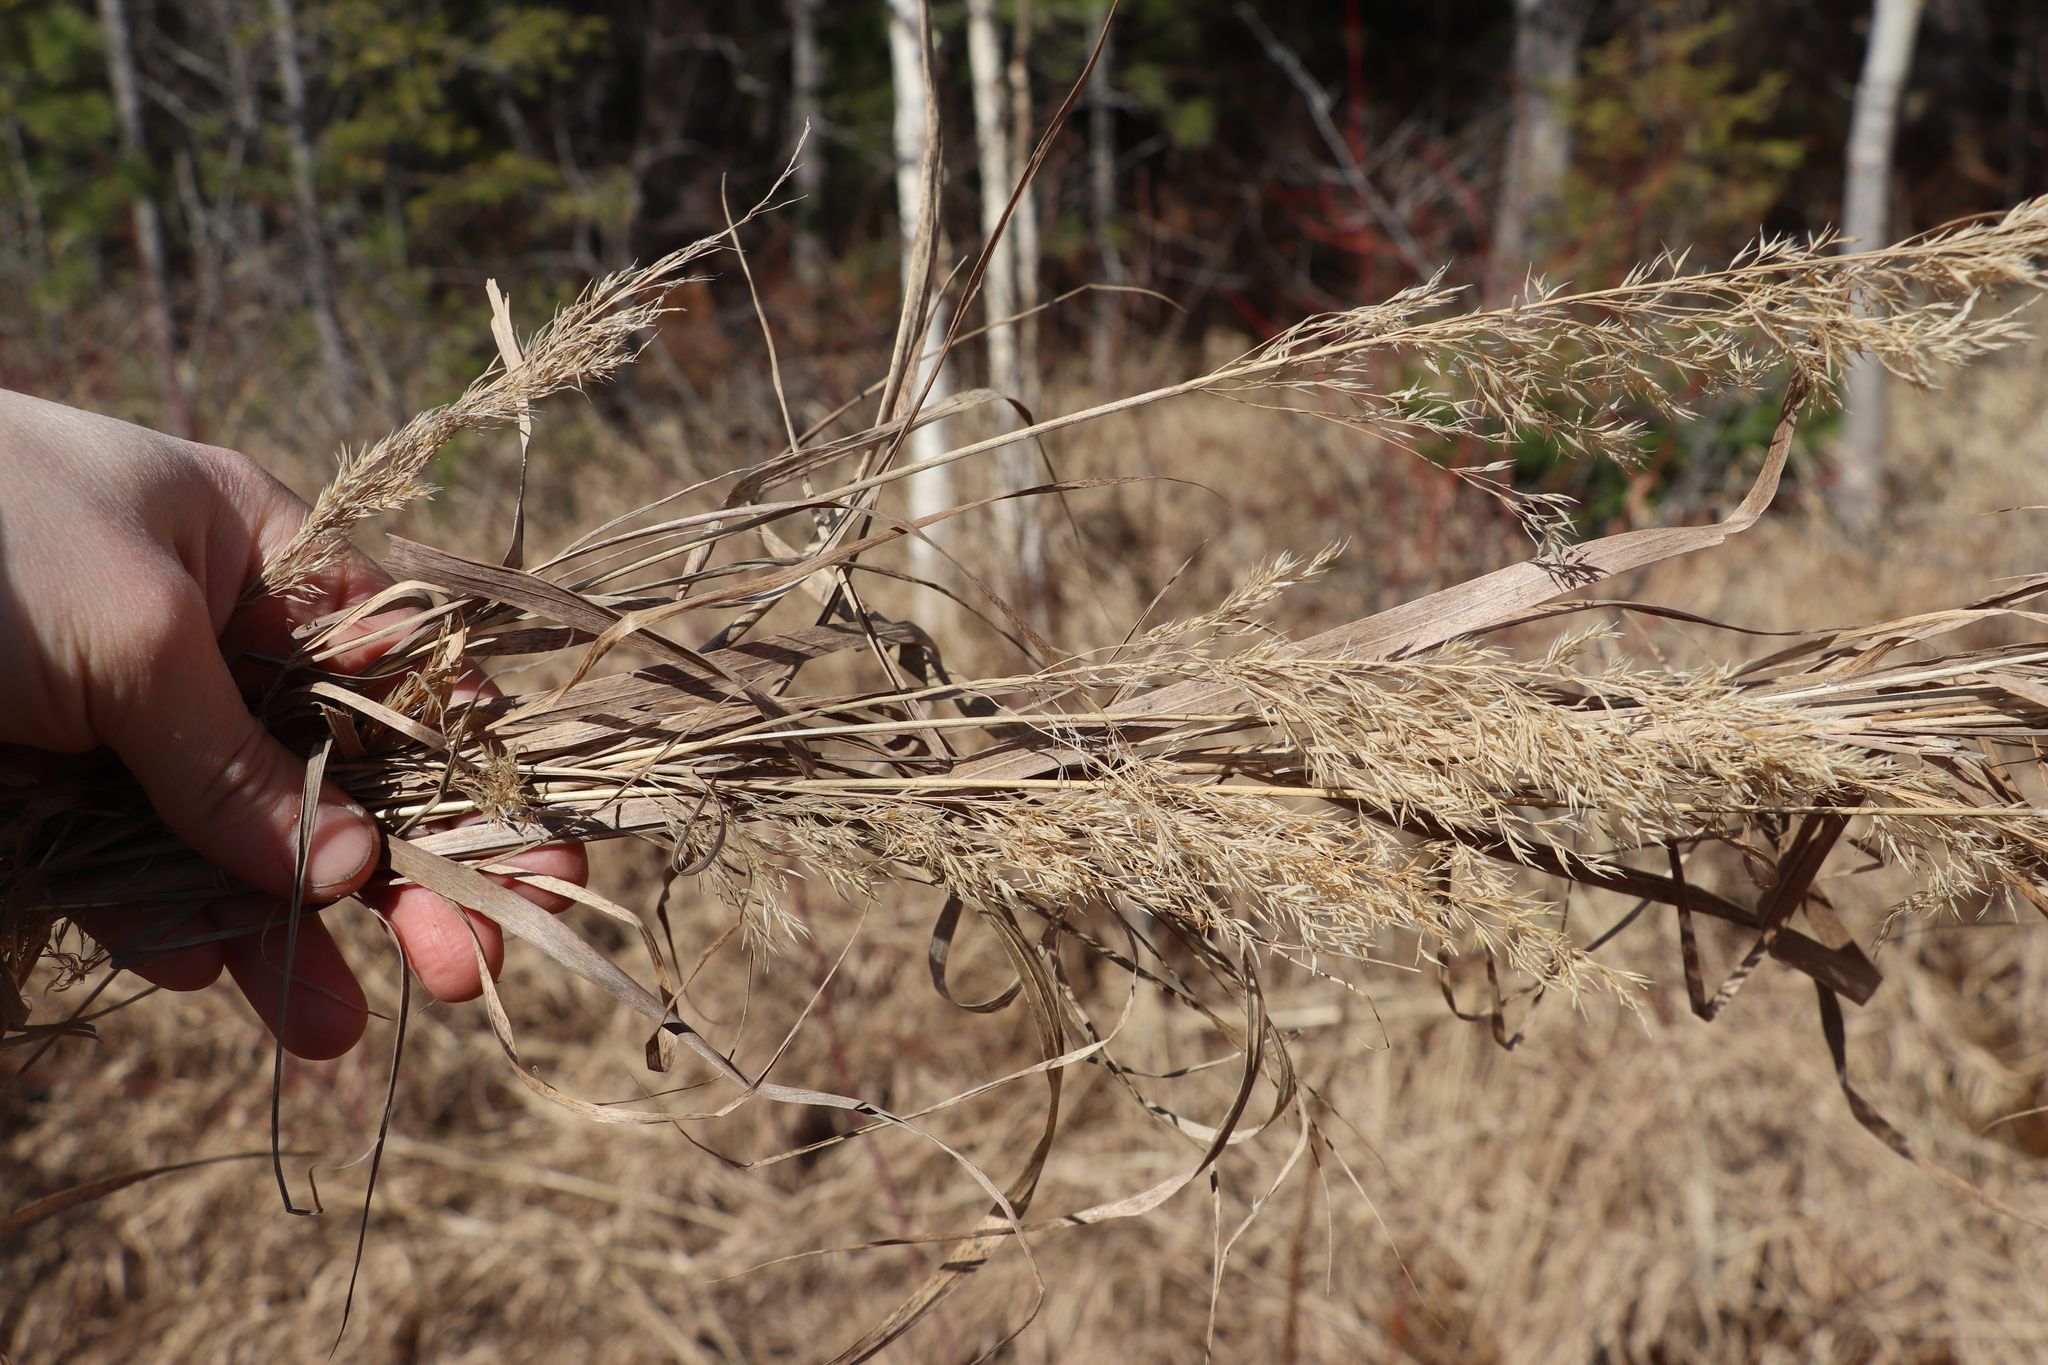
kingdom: Plantae
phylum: Tracheophyta
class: Liliopsida
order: Poales
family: Poaceae
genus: Calamagrostis
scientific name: Calamagrostis purpurea
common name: Scandinavian small-reed
